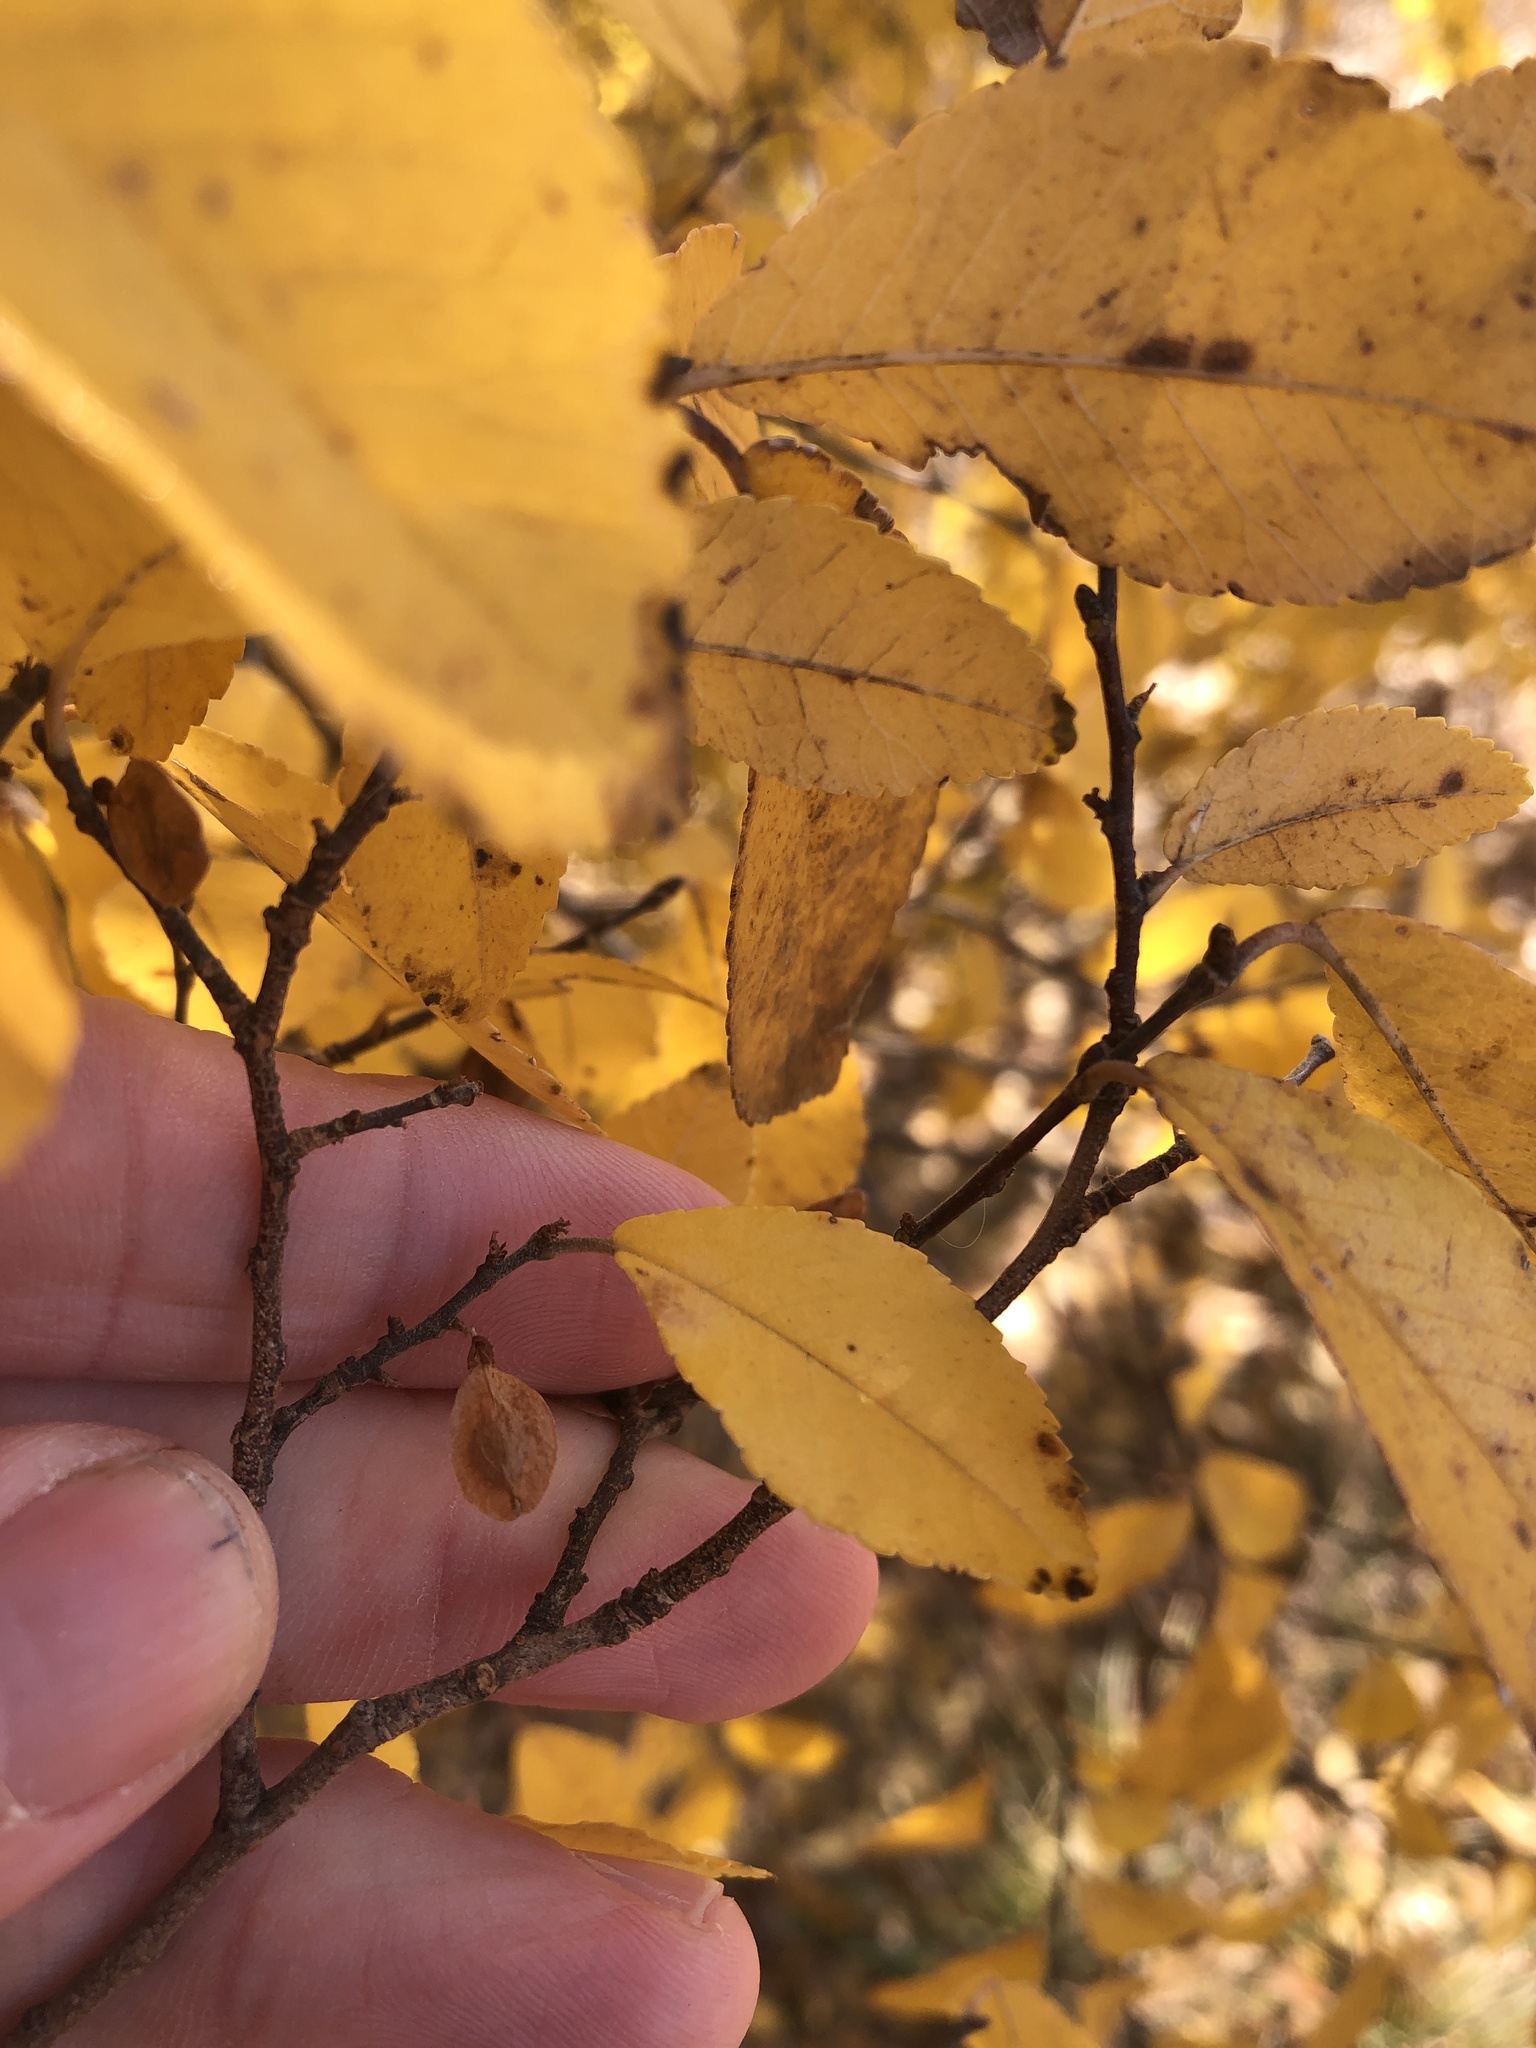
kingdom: Plantae
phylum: Tracheophyta
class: Magnoliopsida
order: Rosales
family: Ulmaceae
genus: Ulmus
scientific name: Ulmus parvifolia
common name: Chinese elm
